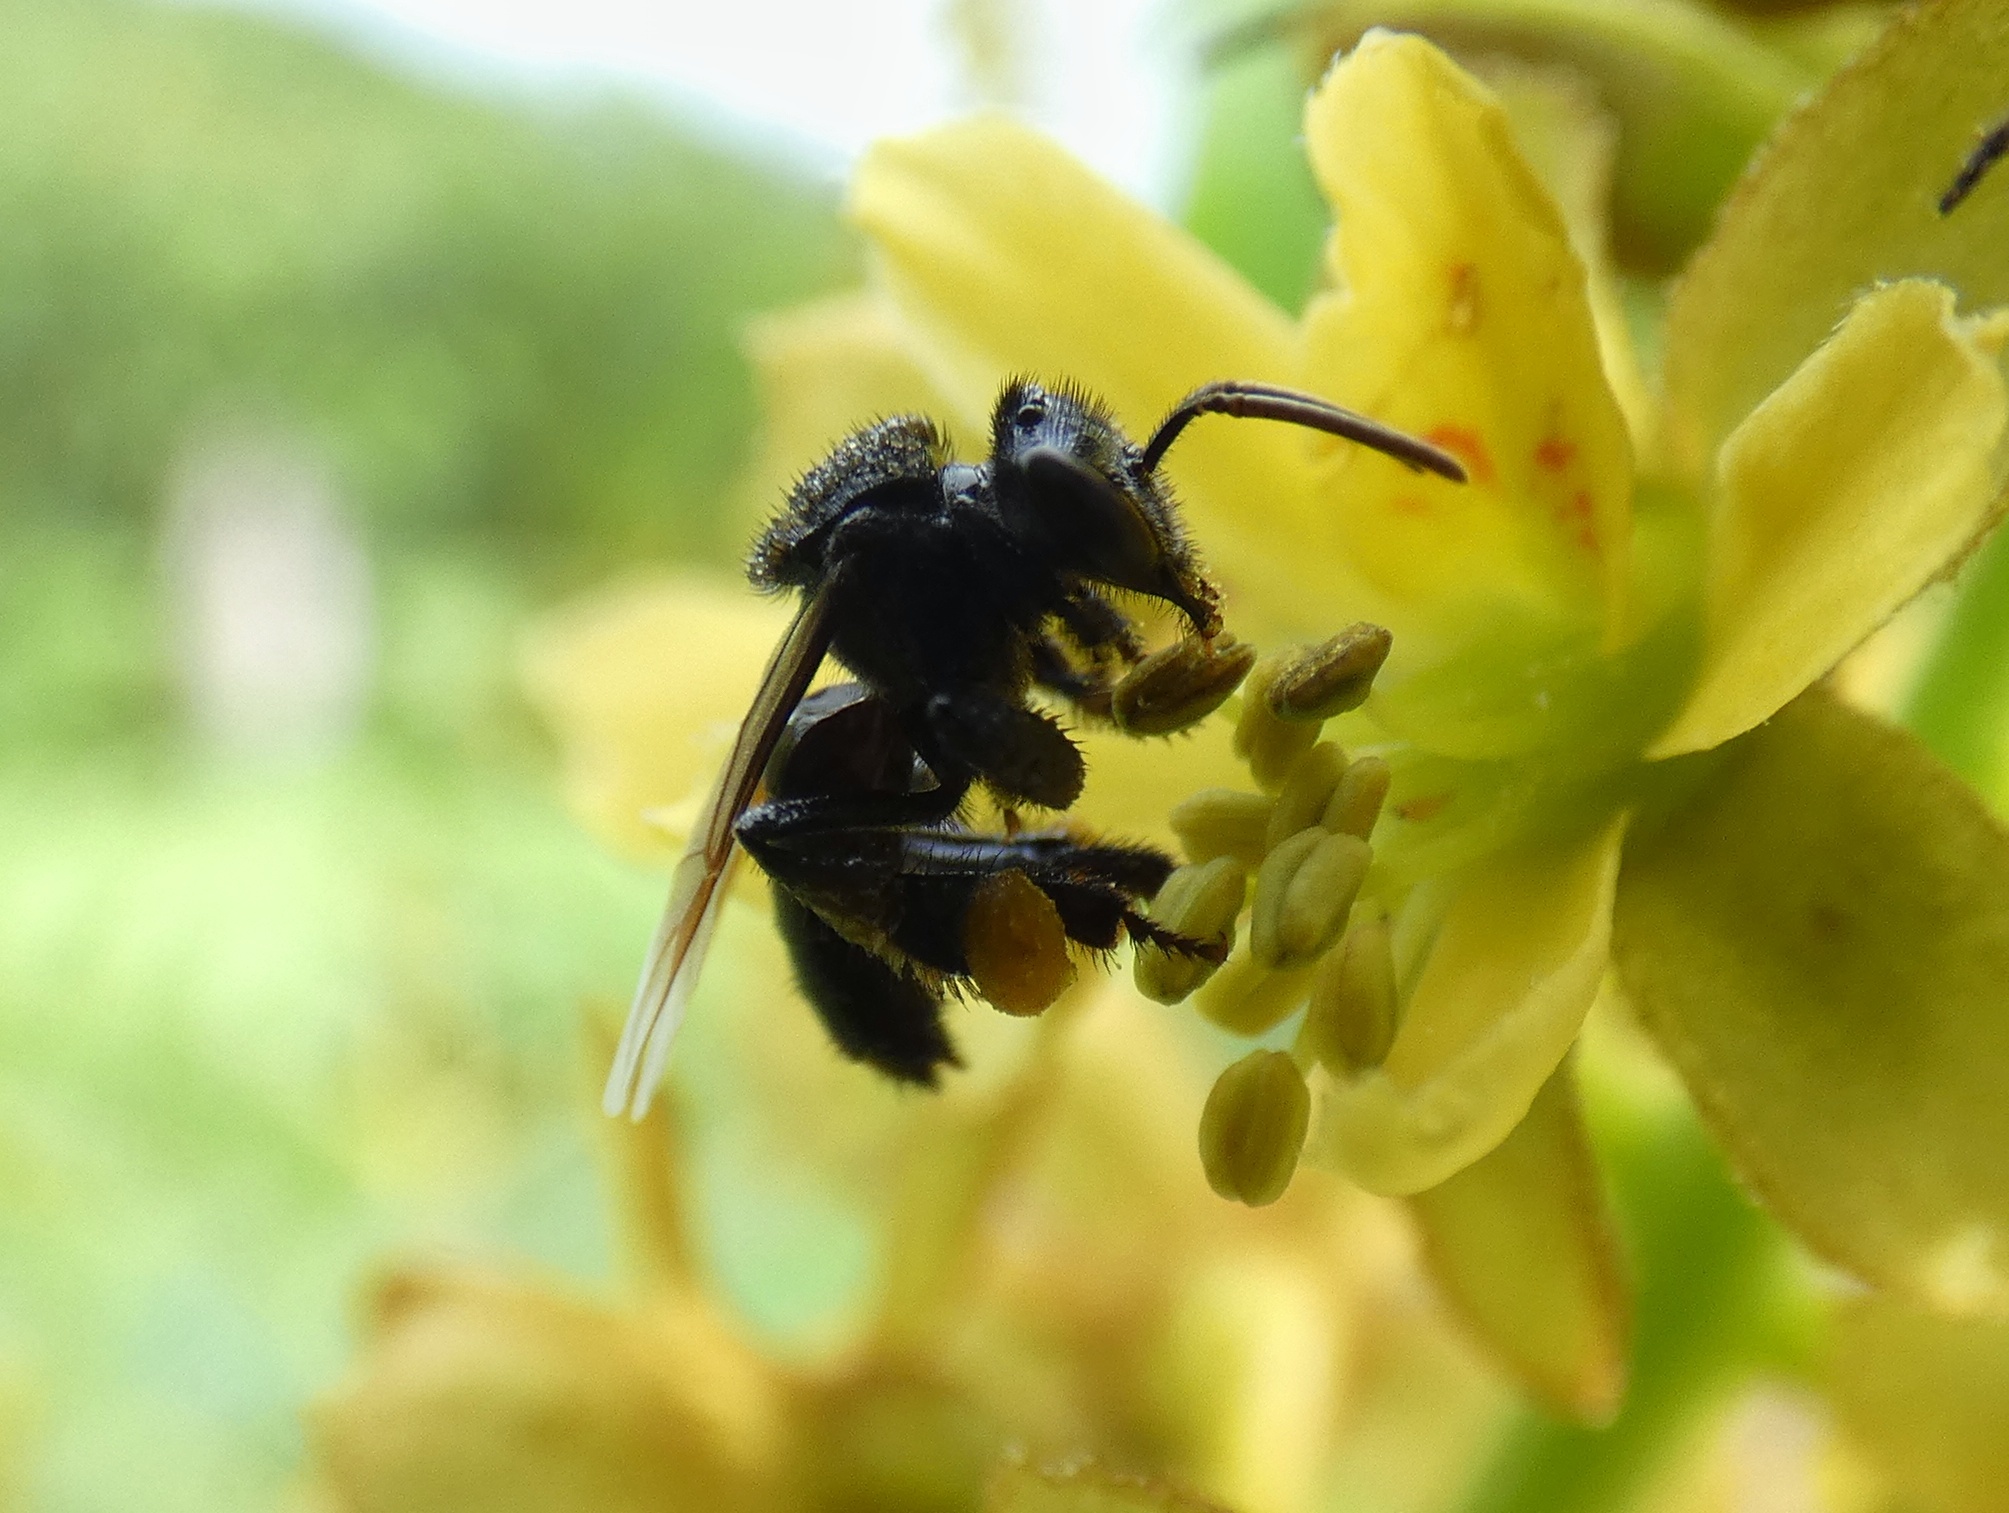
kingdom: Animalia
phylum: Arthropoda
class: Insecta
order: Hymenoptera
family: Apidae
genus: Frieseomelitta
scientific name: Frieseomelitta paupera
